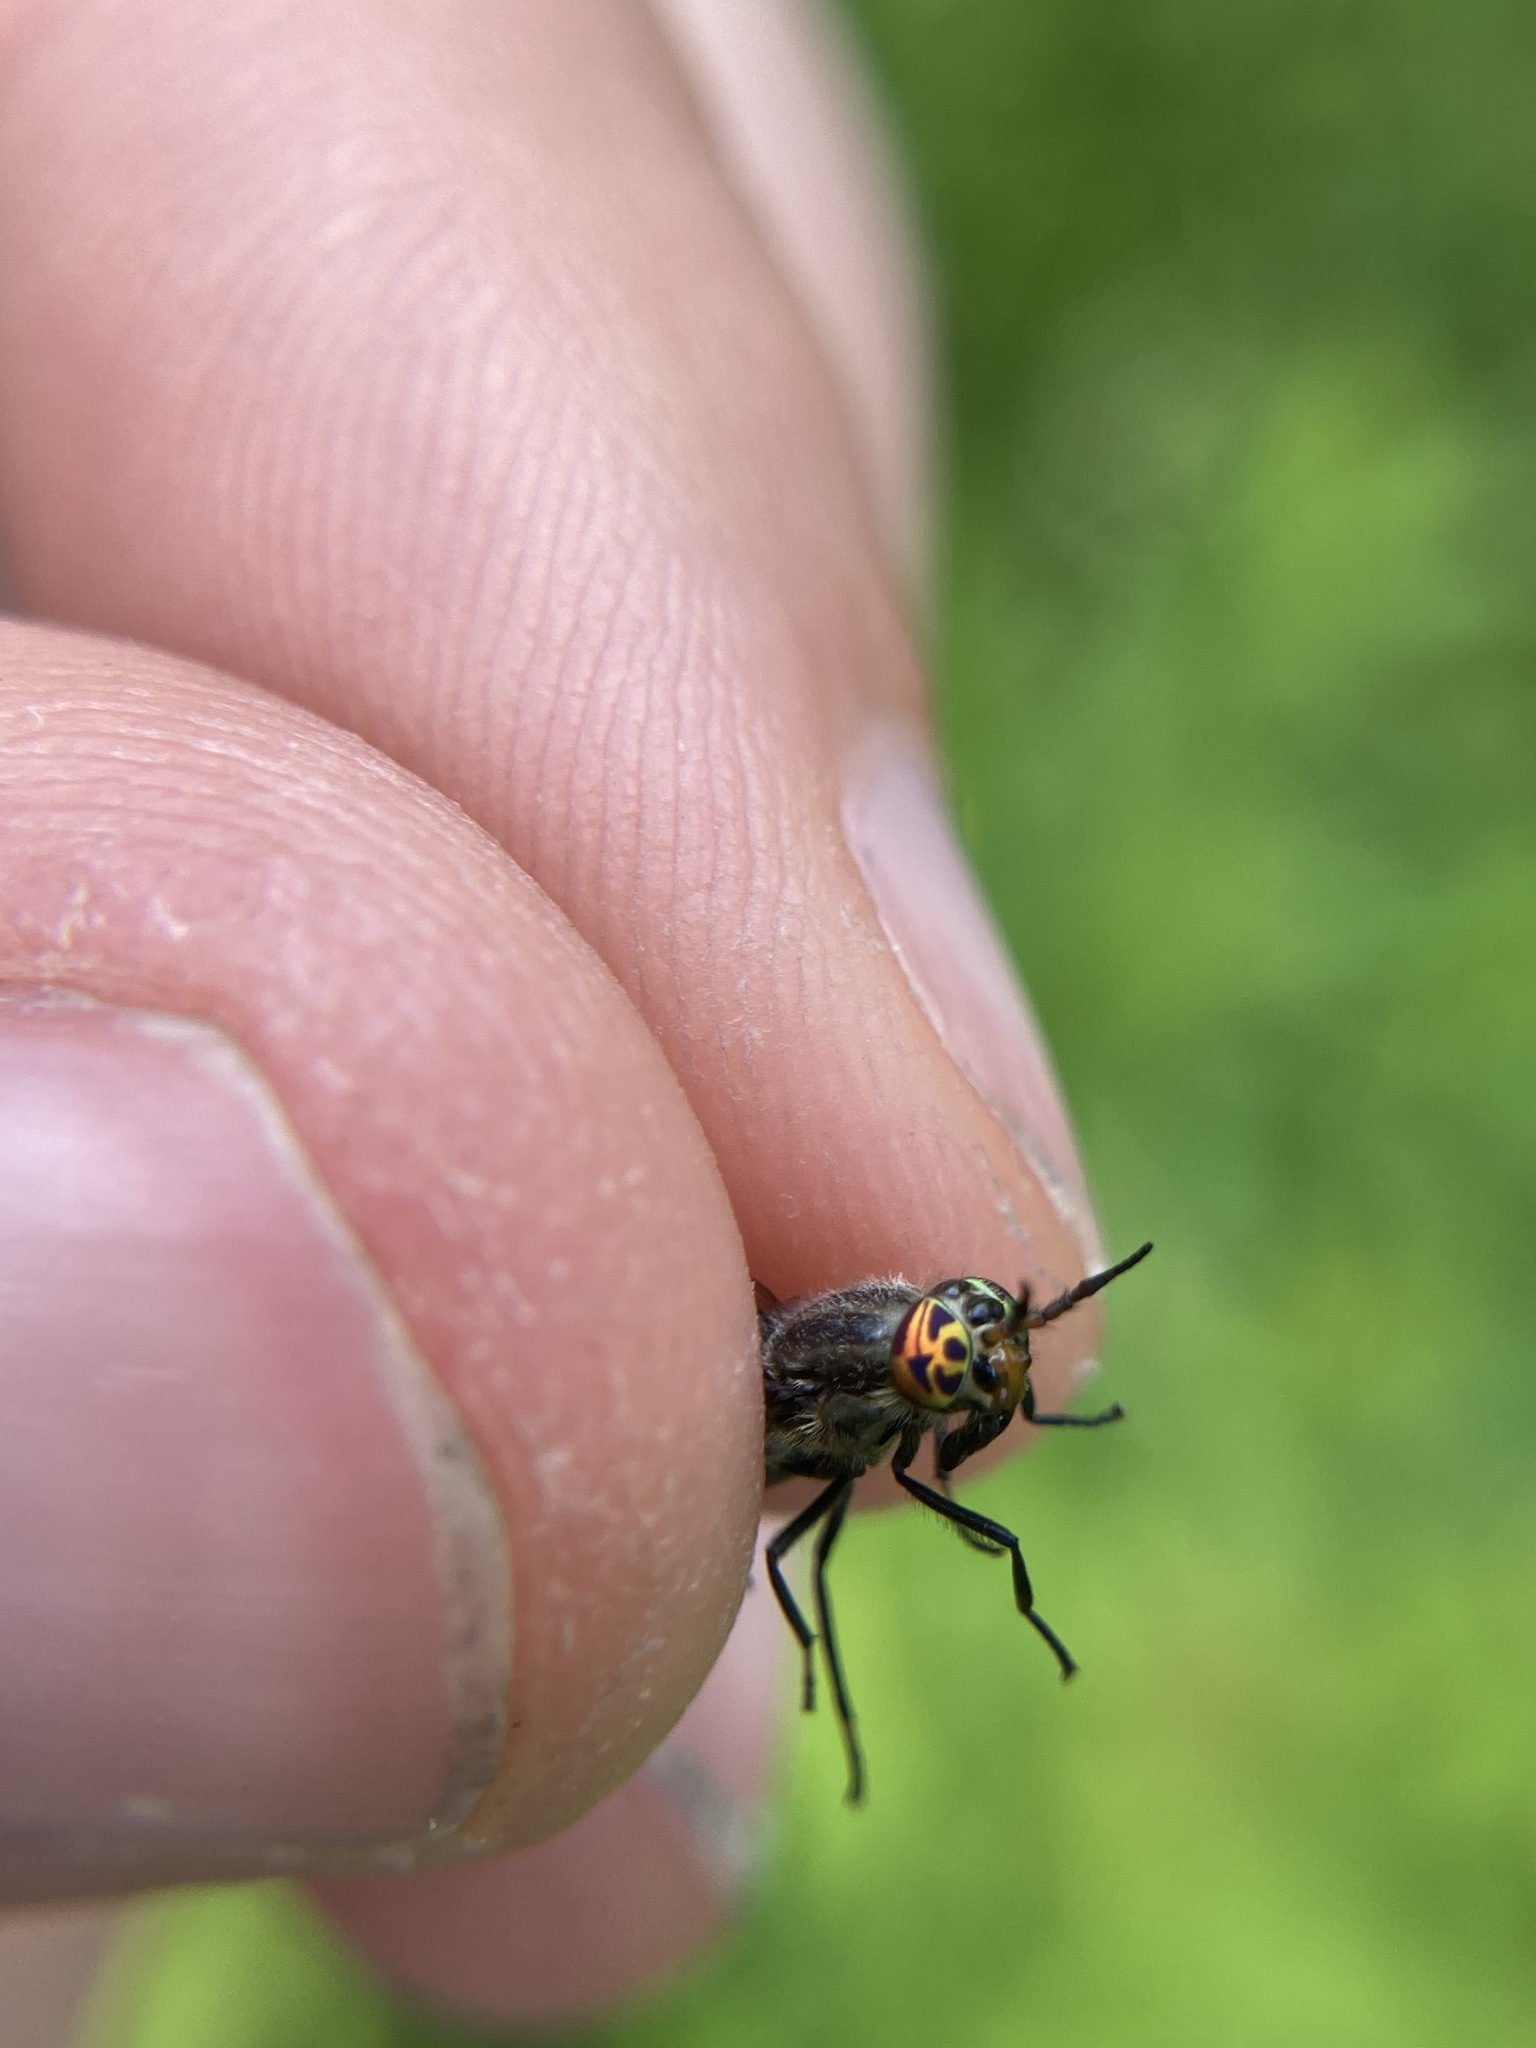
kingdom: Animalia
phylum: Arthropoda
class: Insecta
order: Diptera
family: Tabanidae
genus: Chrysops
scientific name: Chrysops
